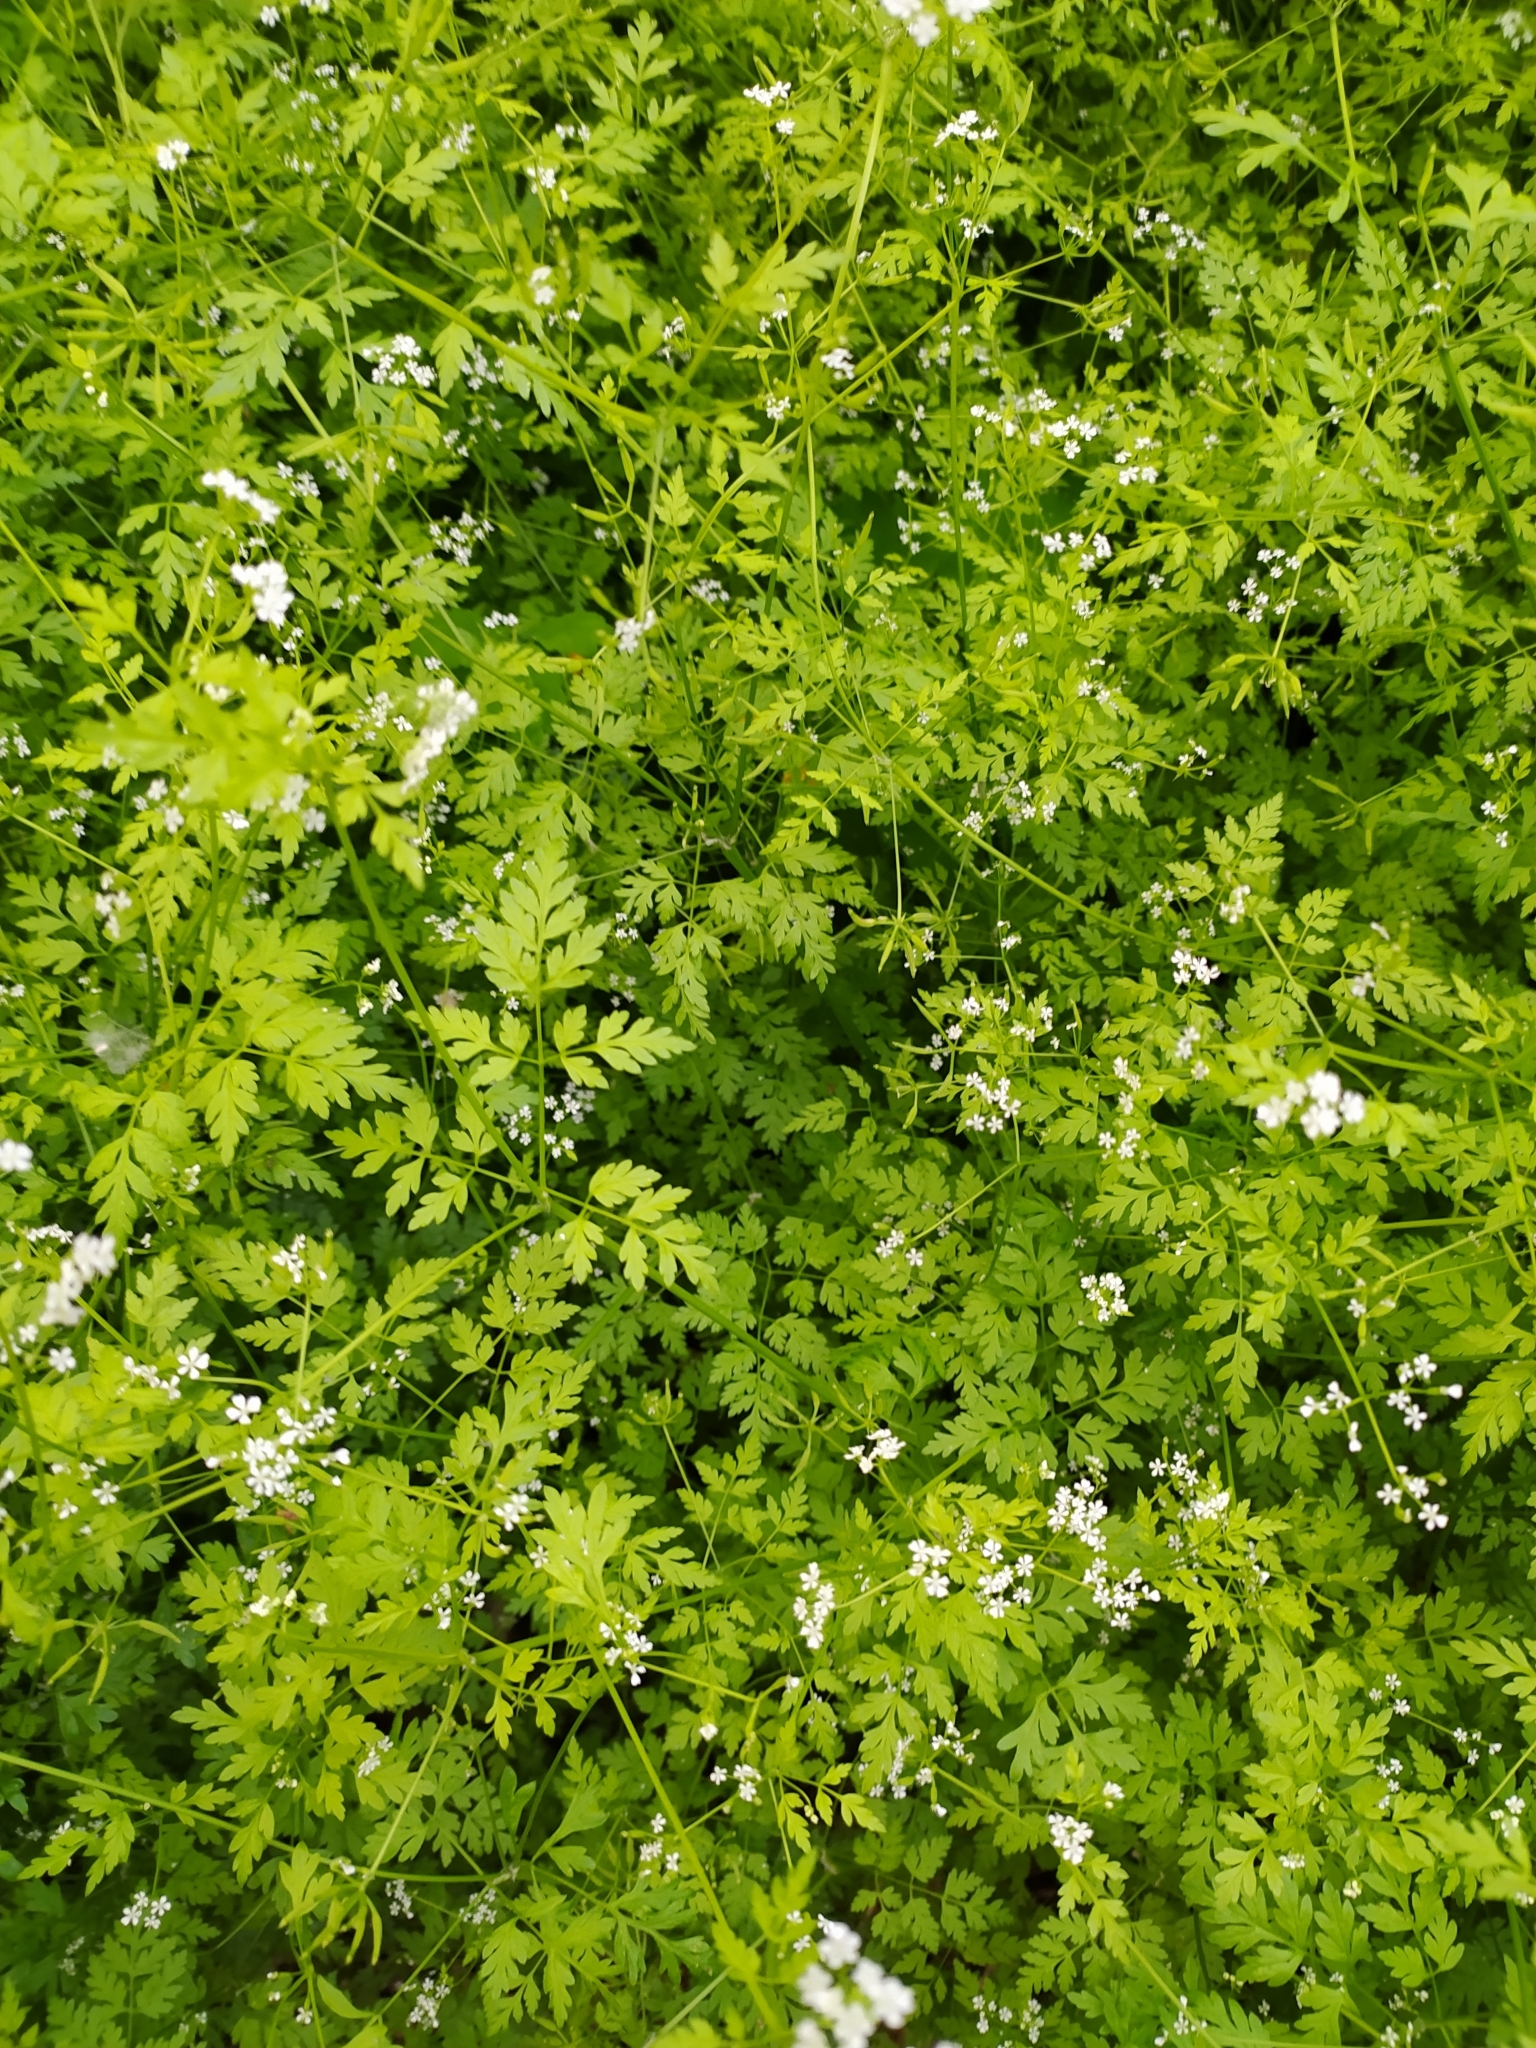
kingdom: Plantae
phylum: Tracheophyta
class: Magnoliopsida
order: Apiales
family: Apiaceae
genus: Anthriscus
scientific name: Anthriscus cerefolium
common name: Garden chervil
